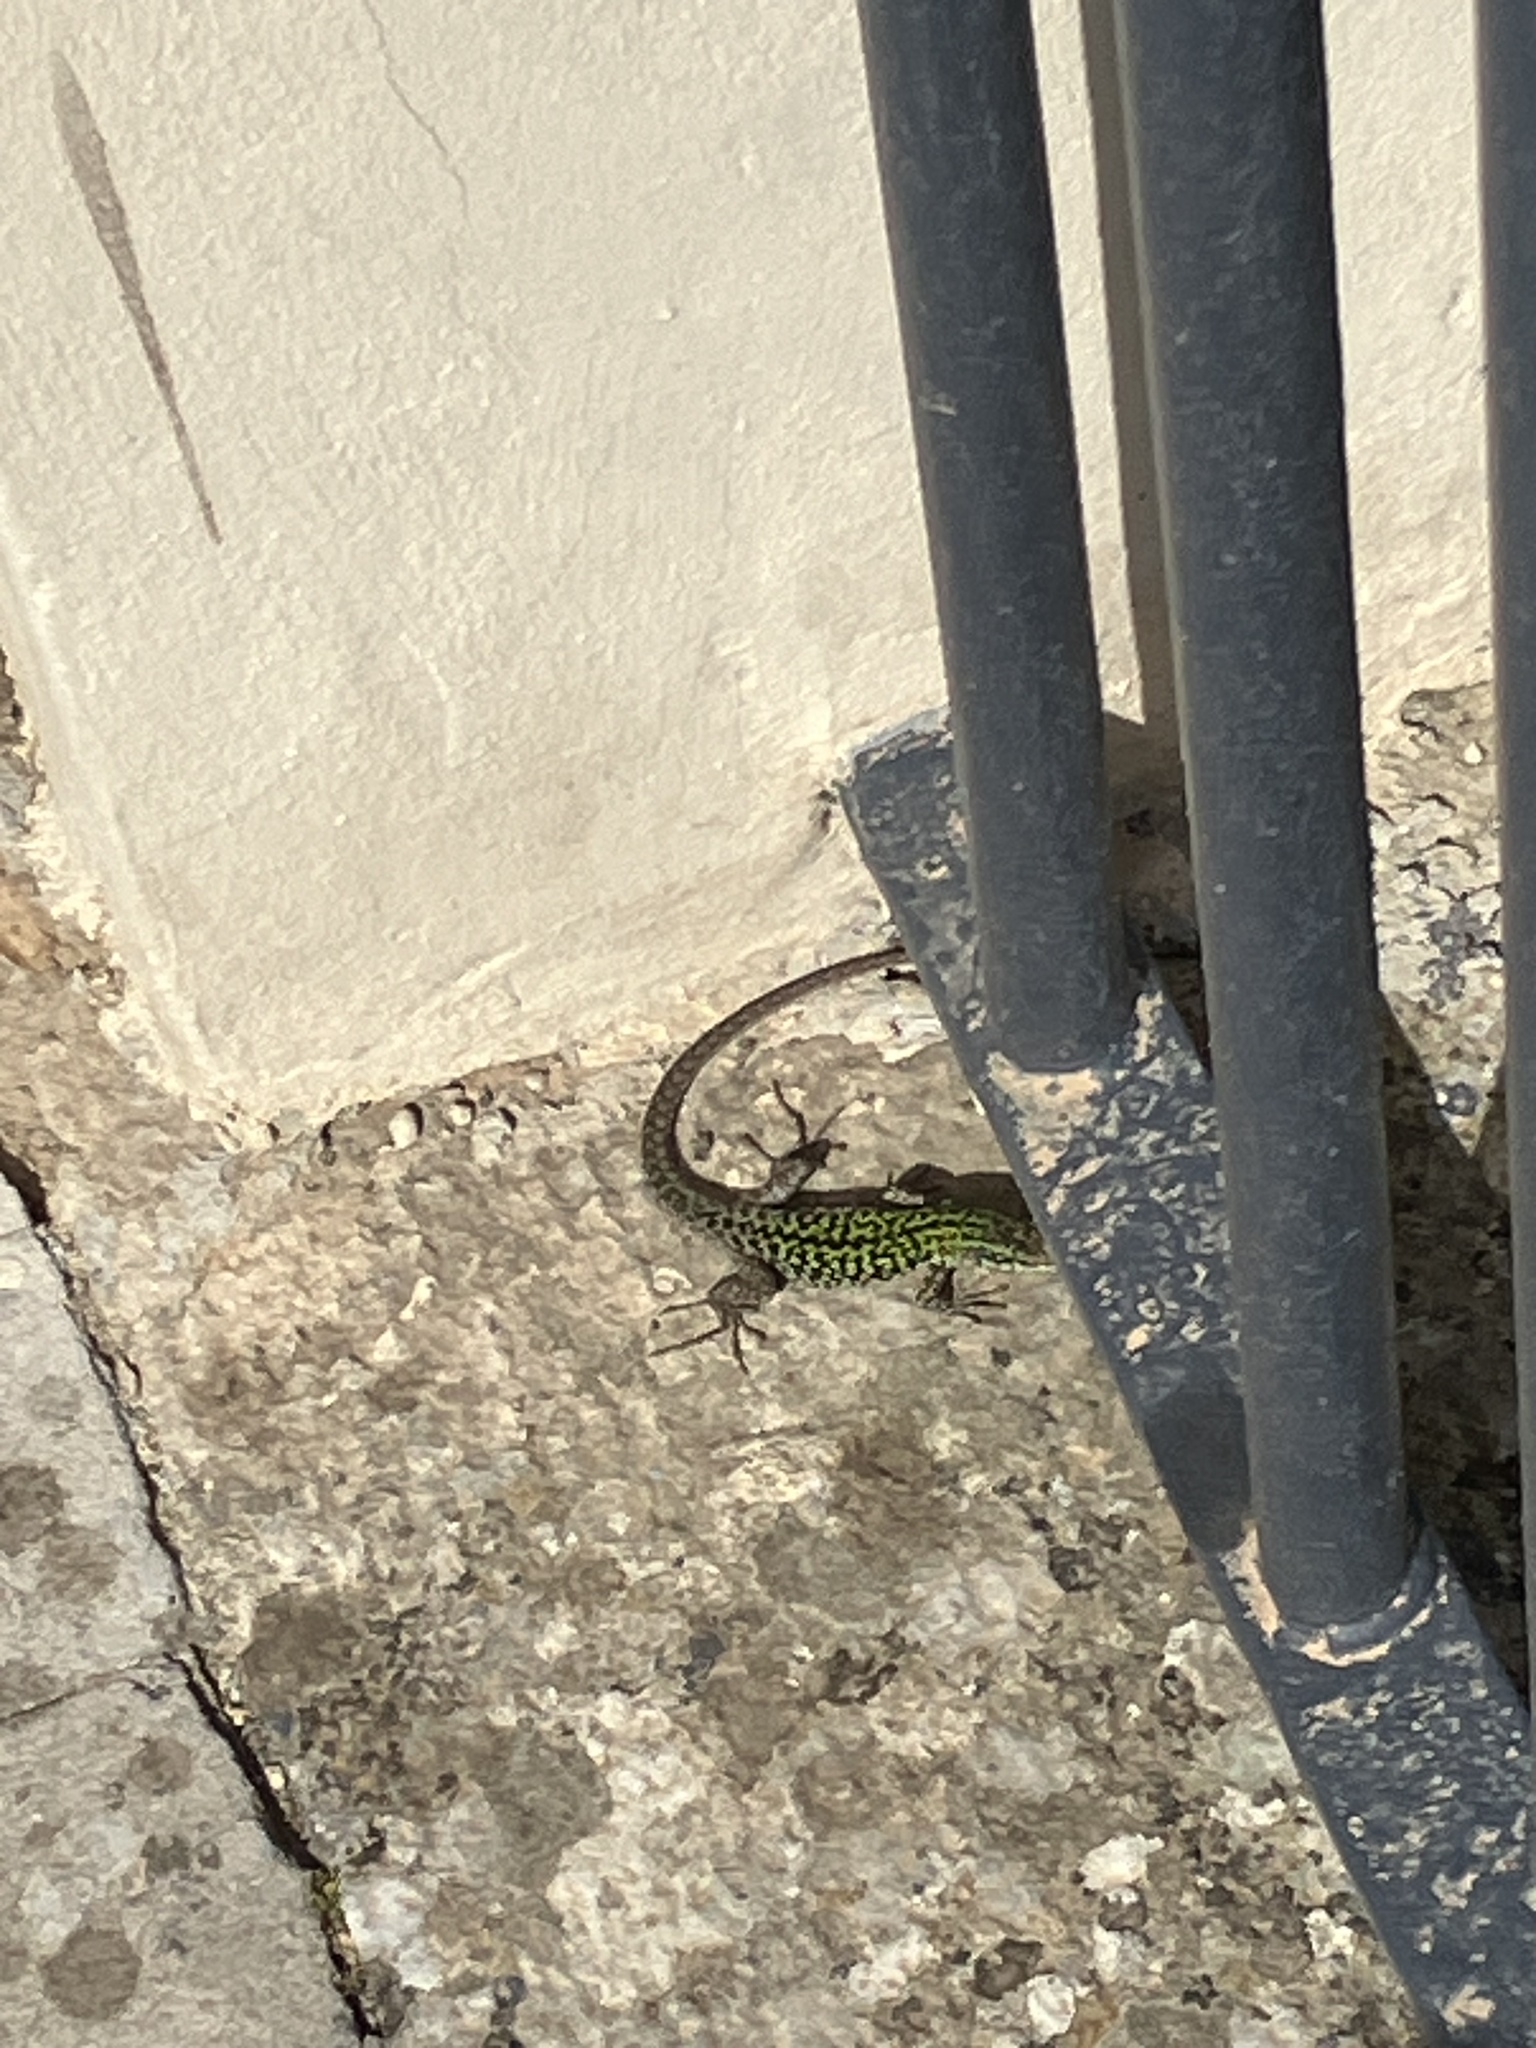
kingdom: Animalia
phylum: Chordata
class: Squamata
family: Lacertidae
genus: Podarcis
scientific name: Podarcis siculus
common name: Italian wall lizard
